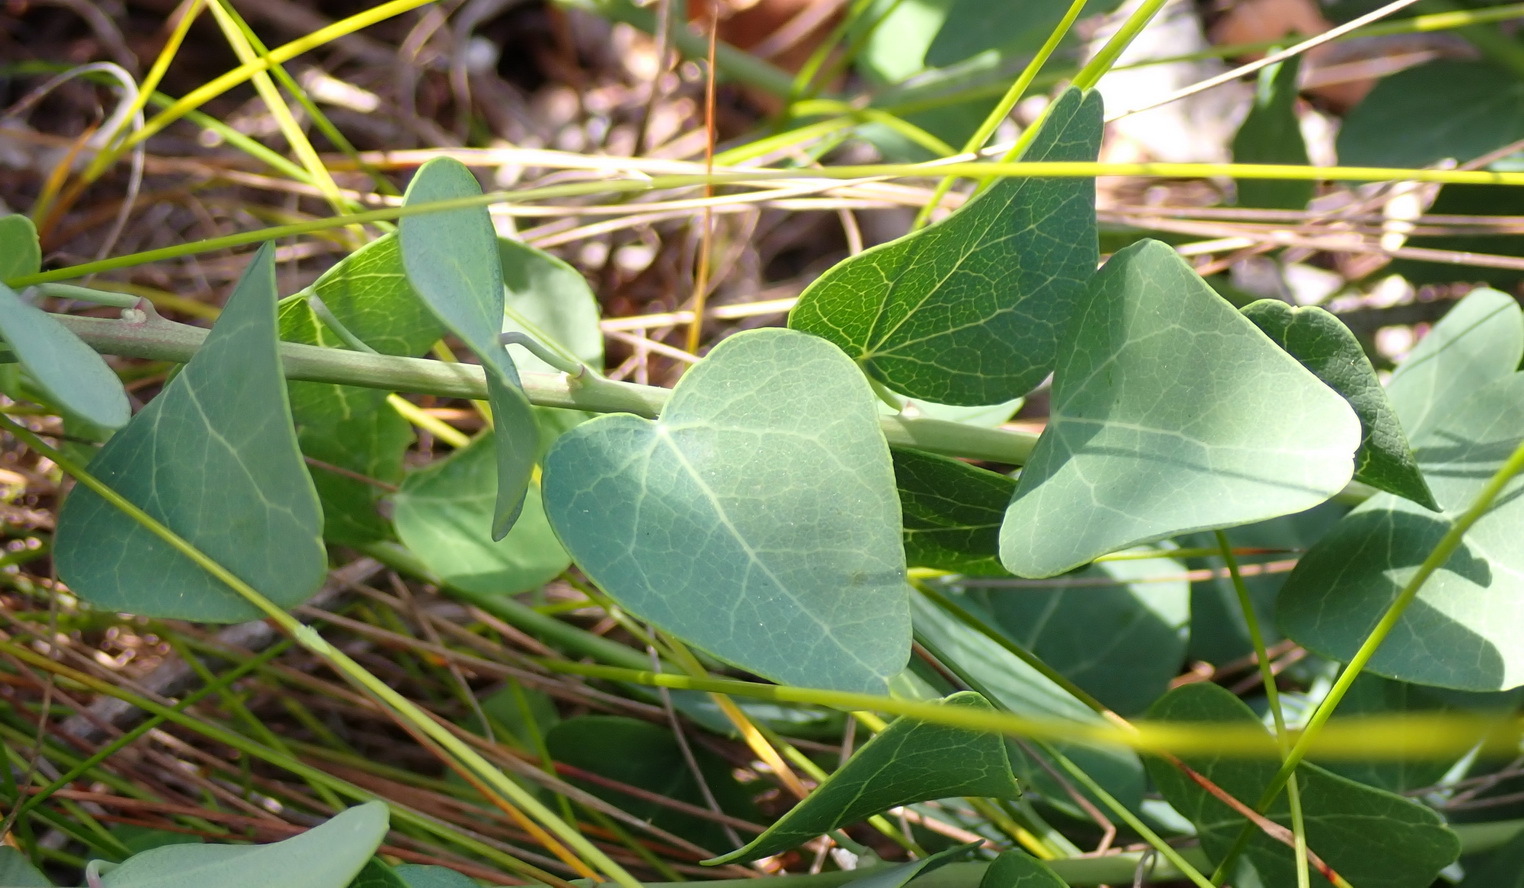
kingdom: Plantae
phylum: Tracheophyta
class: Magnoliopsida
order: Ranunculales
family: Menispermaceae
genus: Cissampelos
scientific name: Cissampelos capensis
